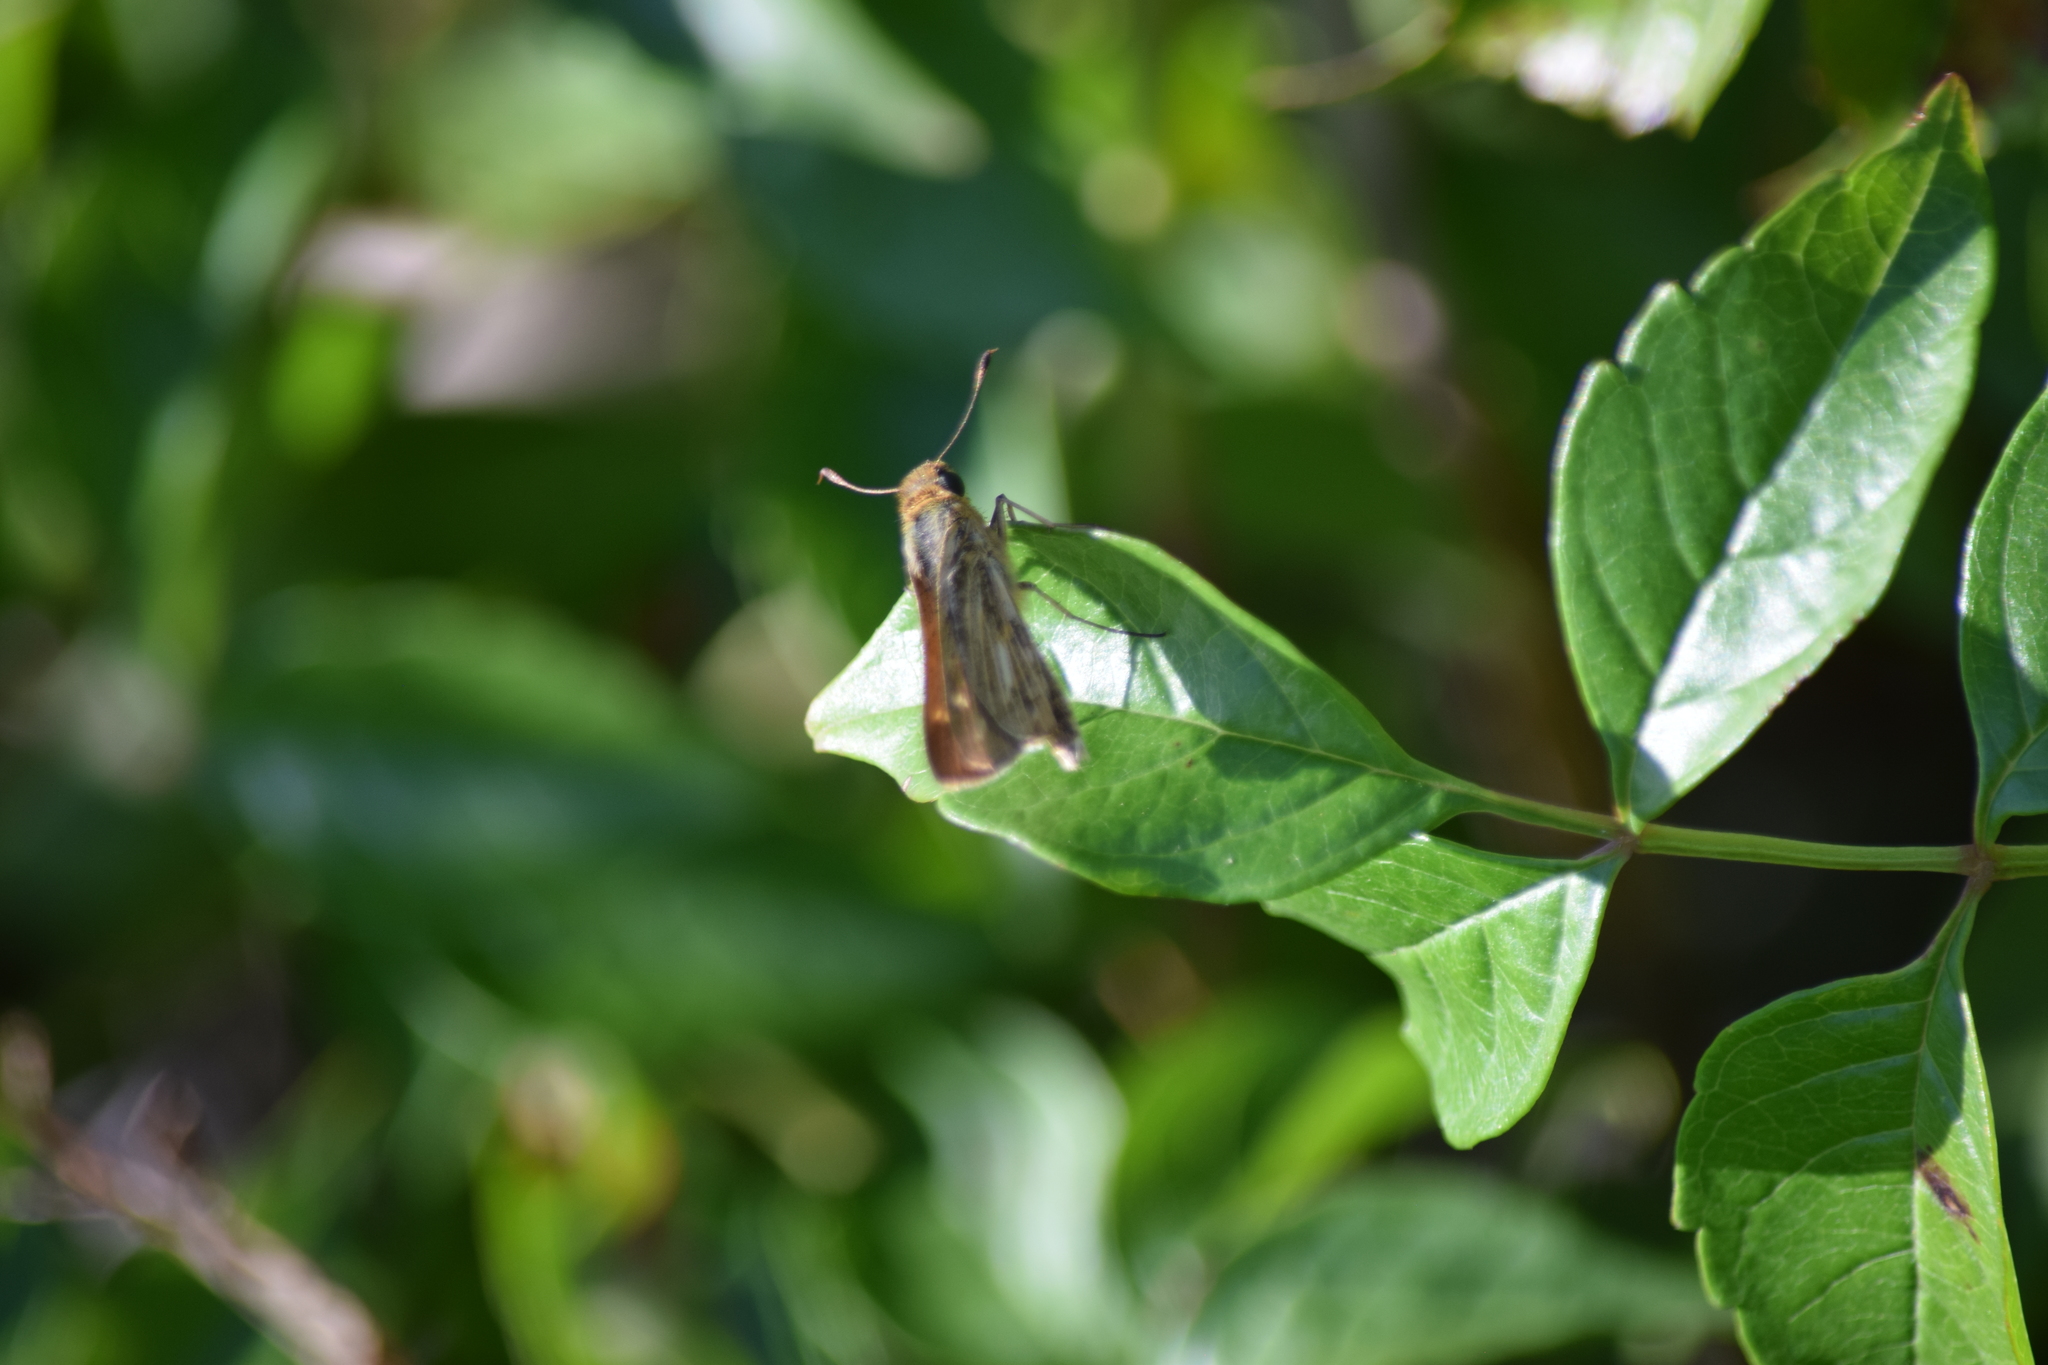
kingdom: Animalia
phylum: Arthropoda
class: Insecta
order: Lepidoptera
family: Hesperiidae
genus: Panoquina
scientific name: Panoquina panoquin
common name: Salt marsh skipper
